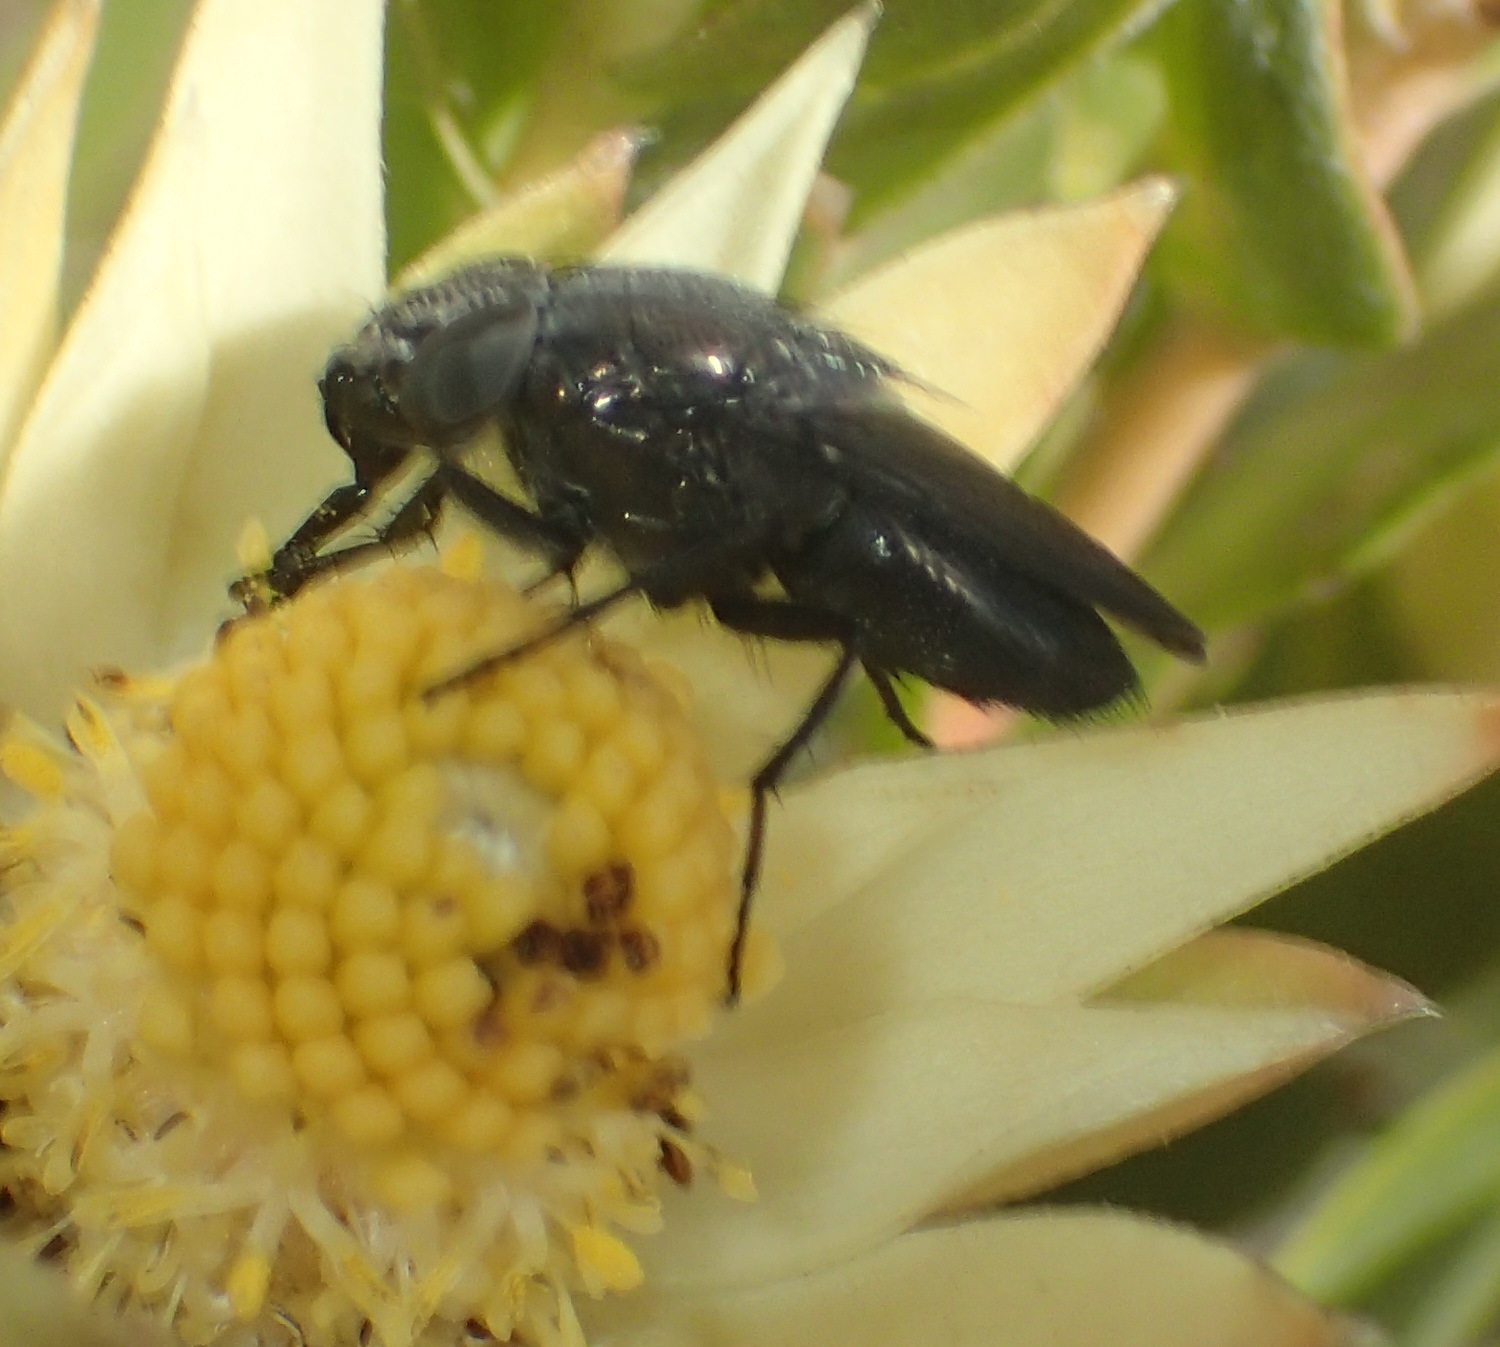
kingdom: Animalia
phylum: Arthropoda
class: Insecta
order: Diptera
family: Calliphoridae
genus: Cosmina
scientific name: Cosmina fuscipennis
